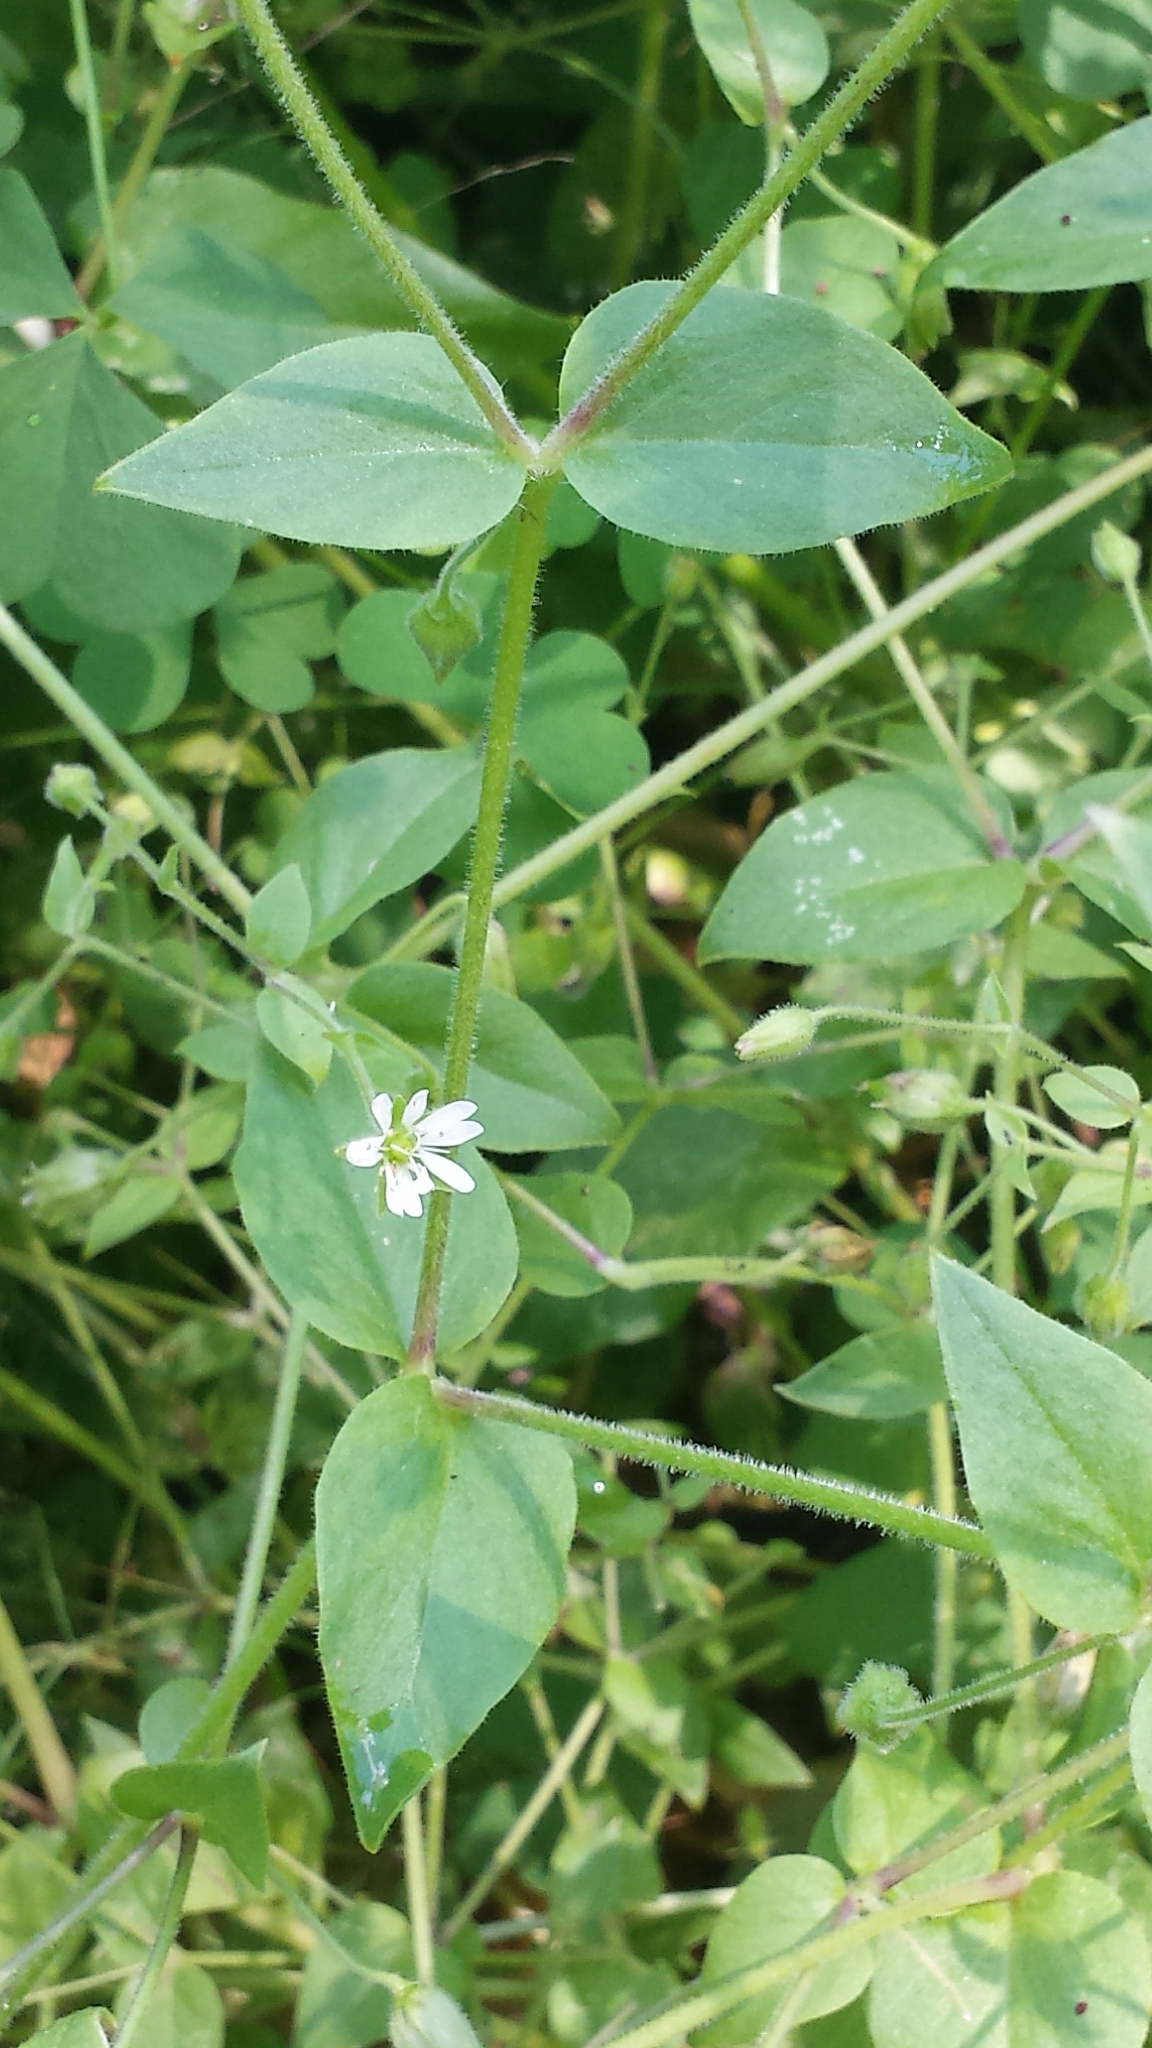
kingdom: Plantae
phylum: Tracheophyta
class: Magnoliopsida
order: Caryophyllales
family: Caryophyllaceae
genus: Stellaria
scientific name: Stellaria aquatica
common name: Water chickweed
